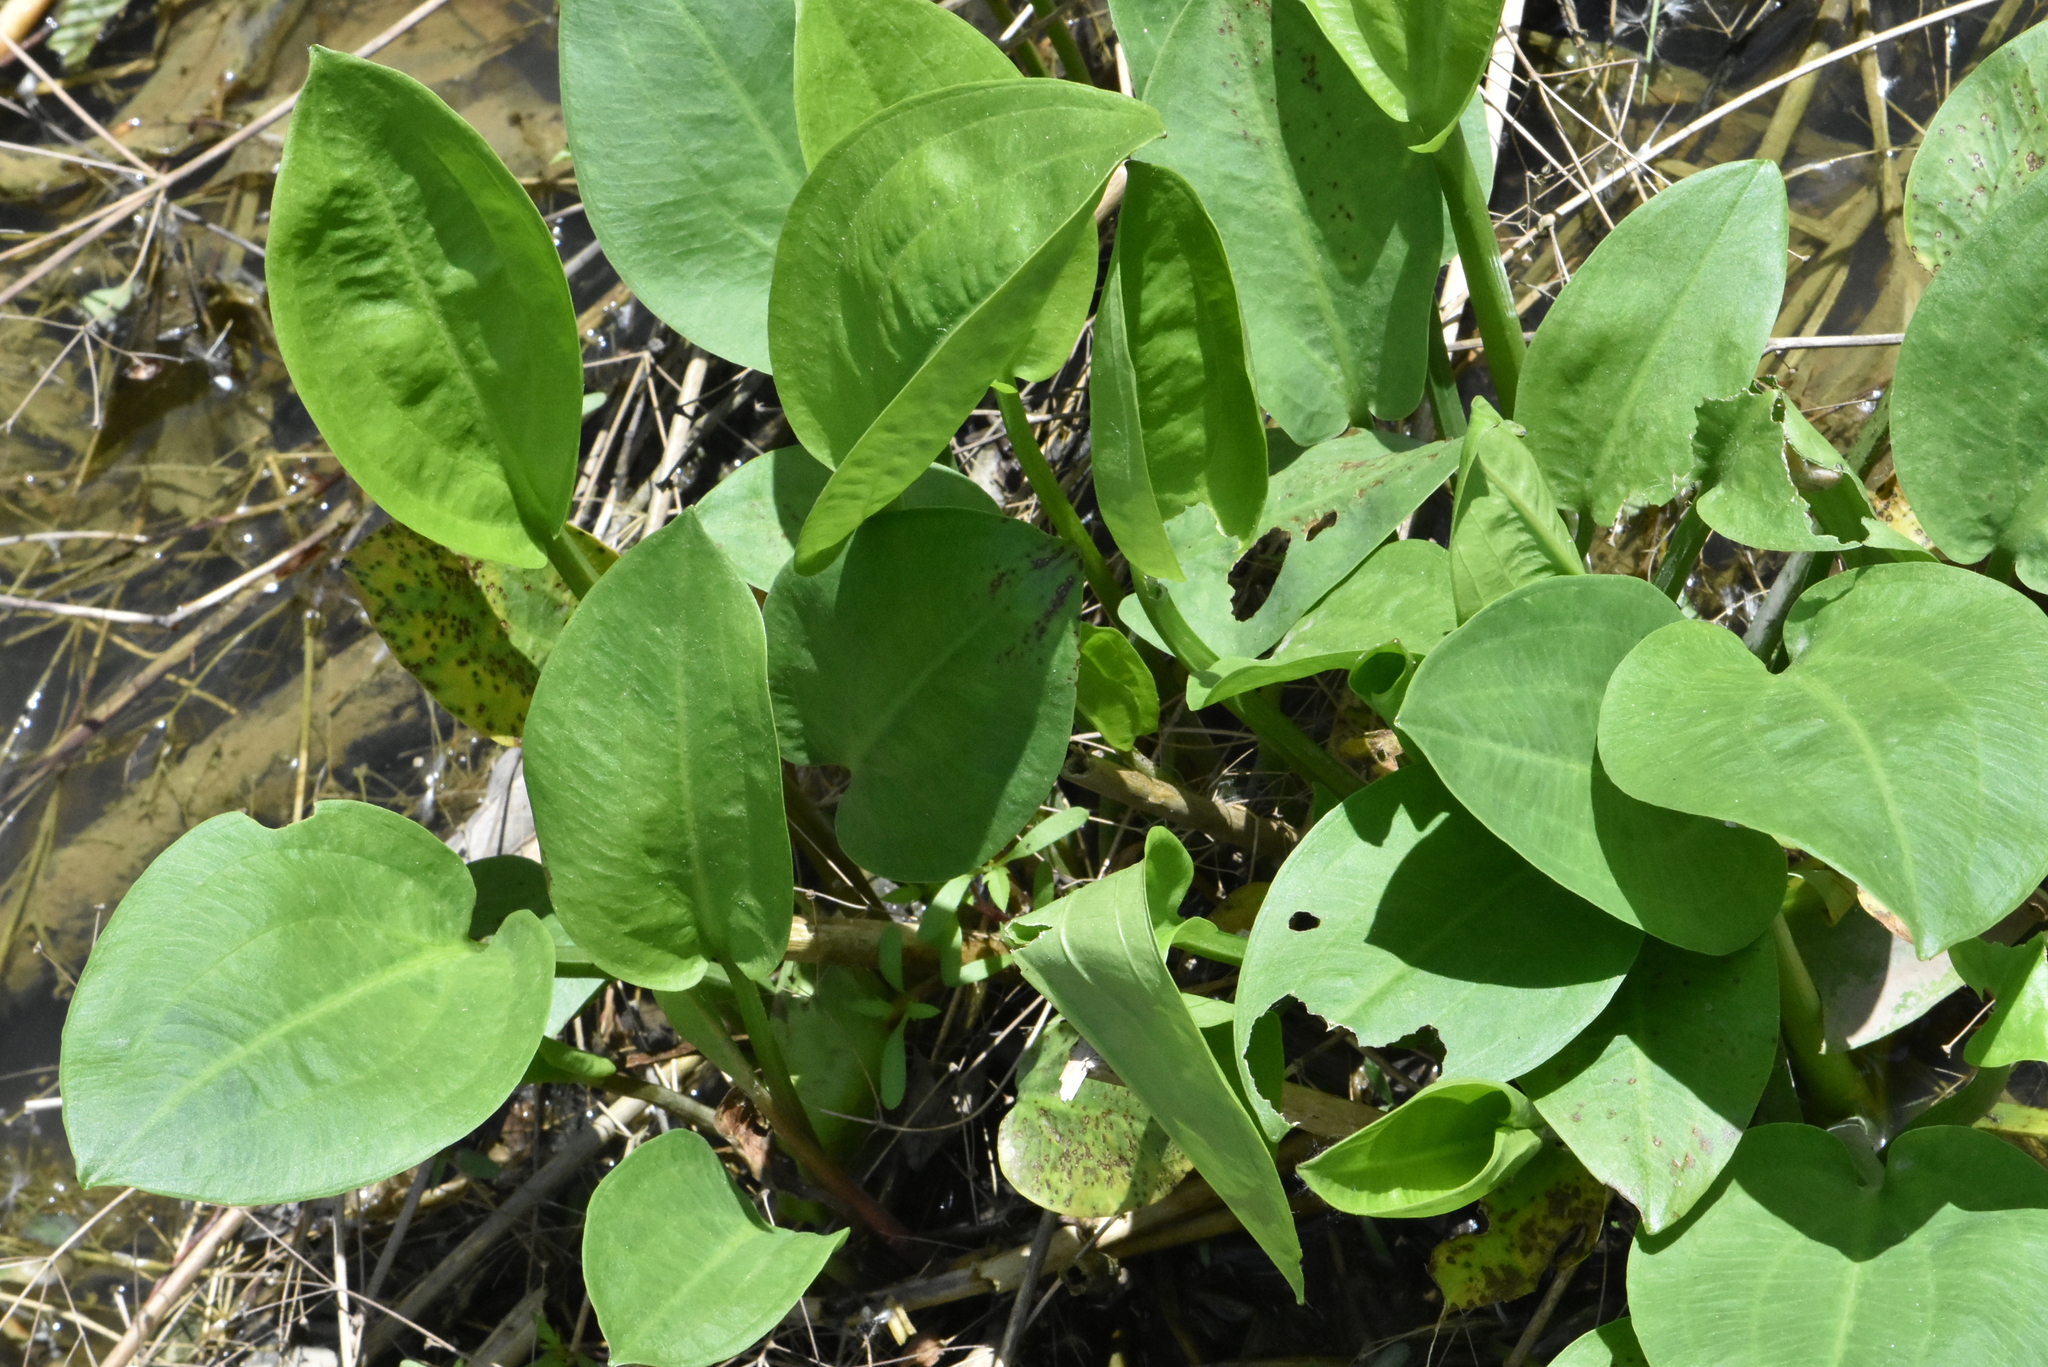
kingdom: Plantae
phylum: Tracheophyta
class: Liliopsida
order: Alismatales
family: Alismataceae
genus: Alisma
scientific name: Alisma plantago-aquatica
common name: Water-plantain
